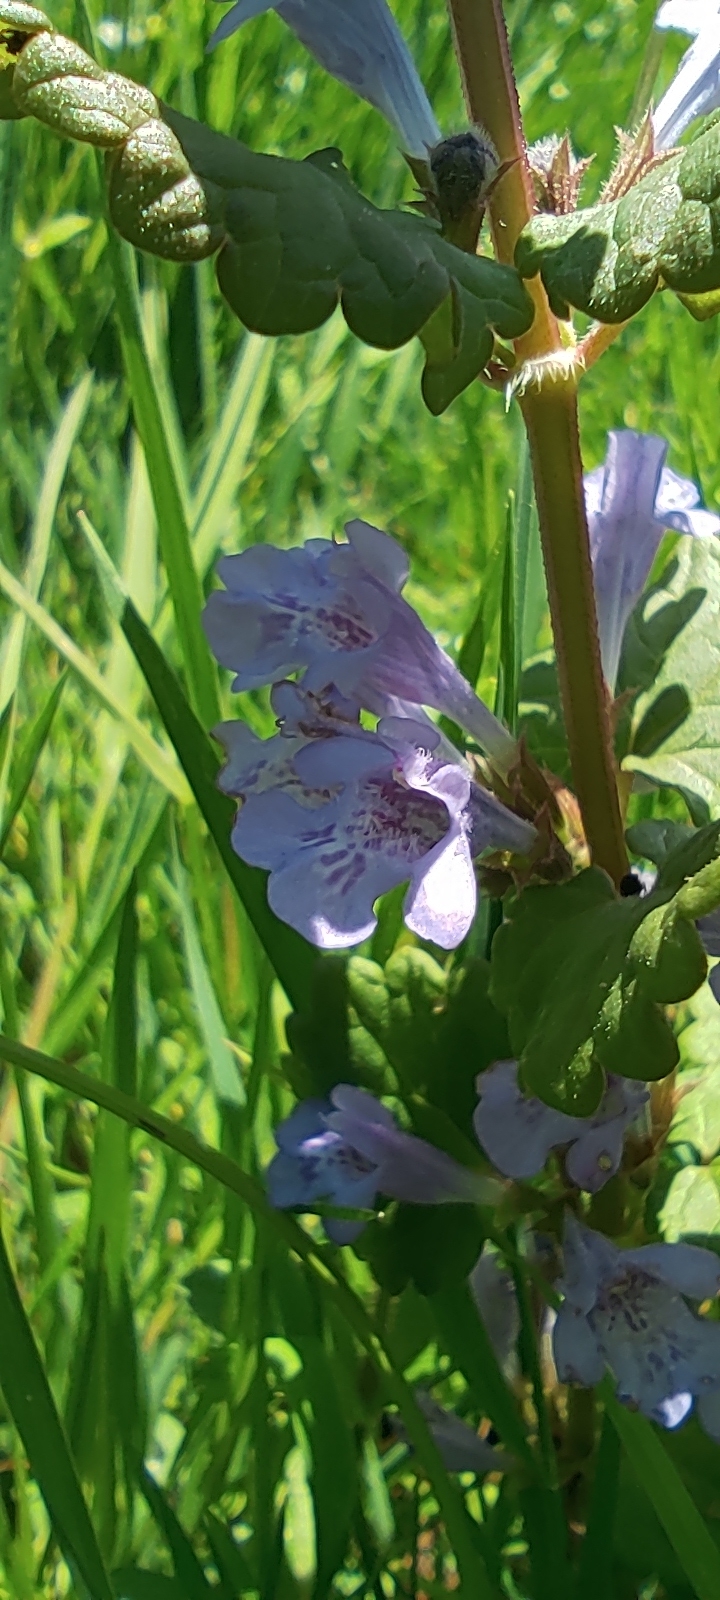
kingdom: Plantae
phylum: Tracheophyta
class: Magnoliopsida
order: Lamiales
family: Lamiaceae
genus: Glechoma
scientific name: Glechoma hederacea
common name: Ground ivy
